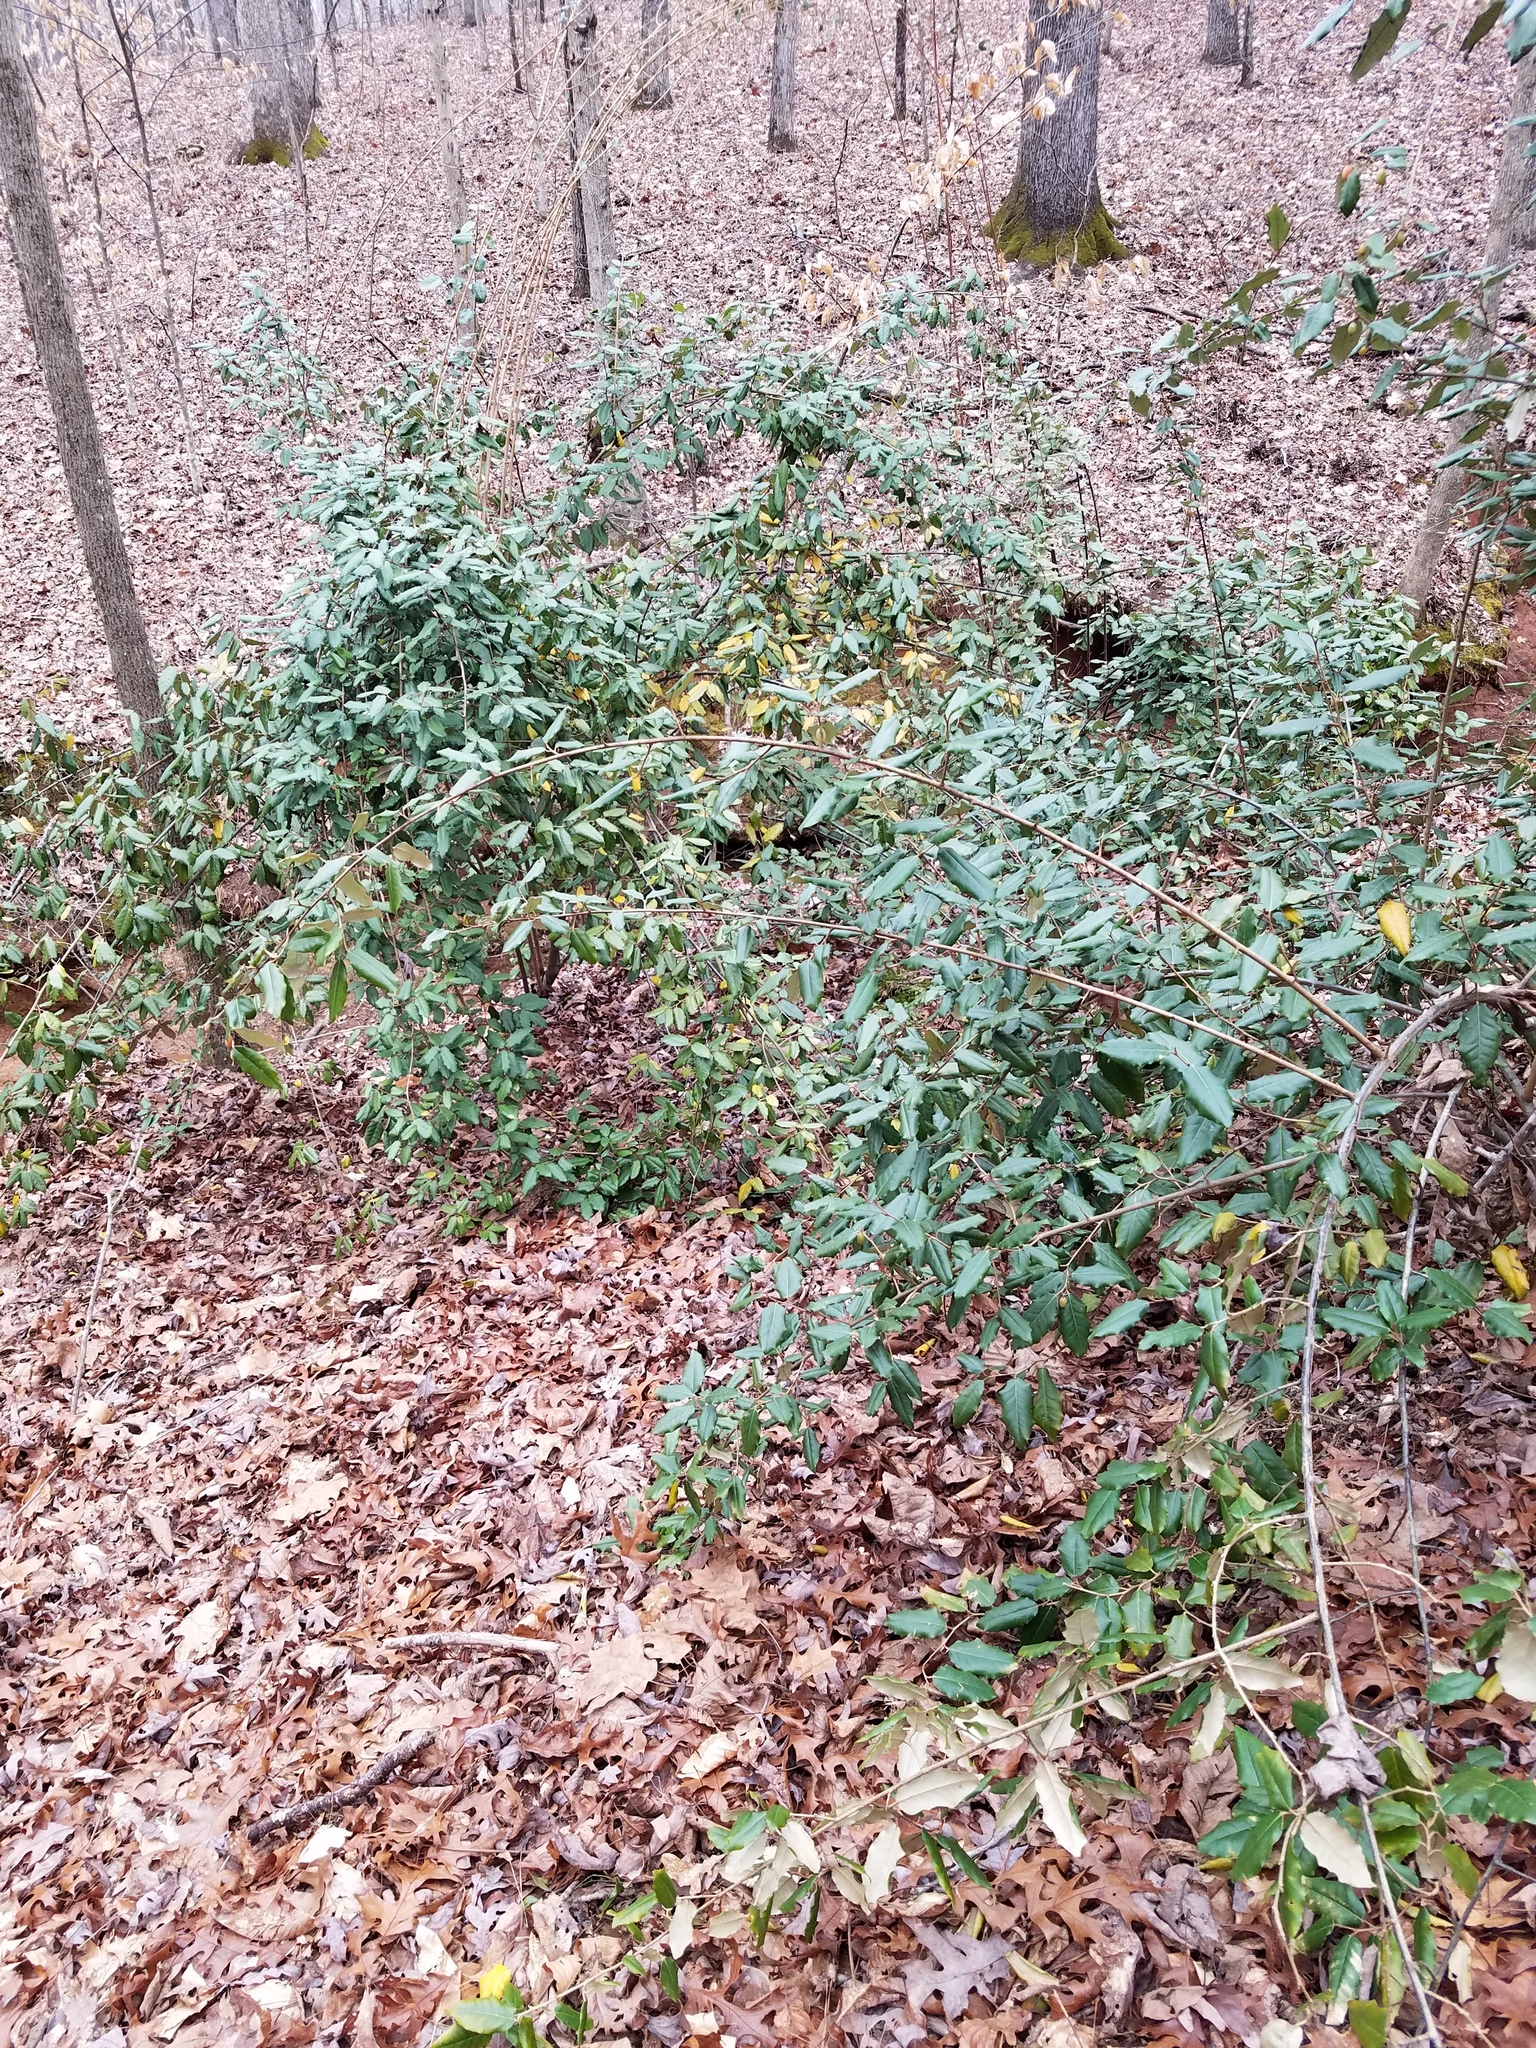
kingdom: Plantae
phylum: Tracheophyta
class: Magnoliopsida
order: Rosales
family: Elaeagnaceae
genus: Elaeagnus
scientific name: Elaeagnus pungens
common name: Spiny oleaster
